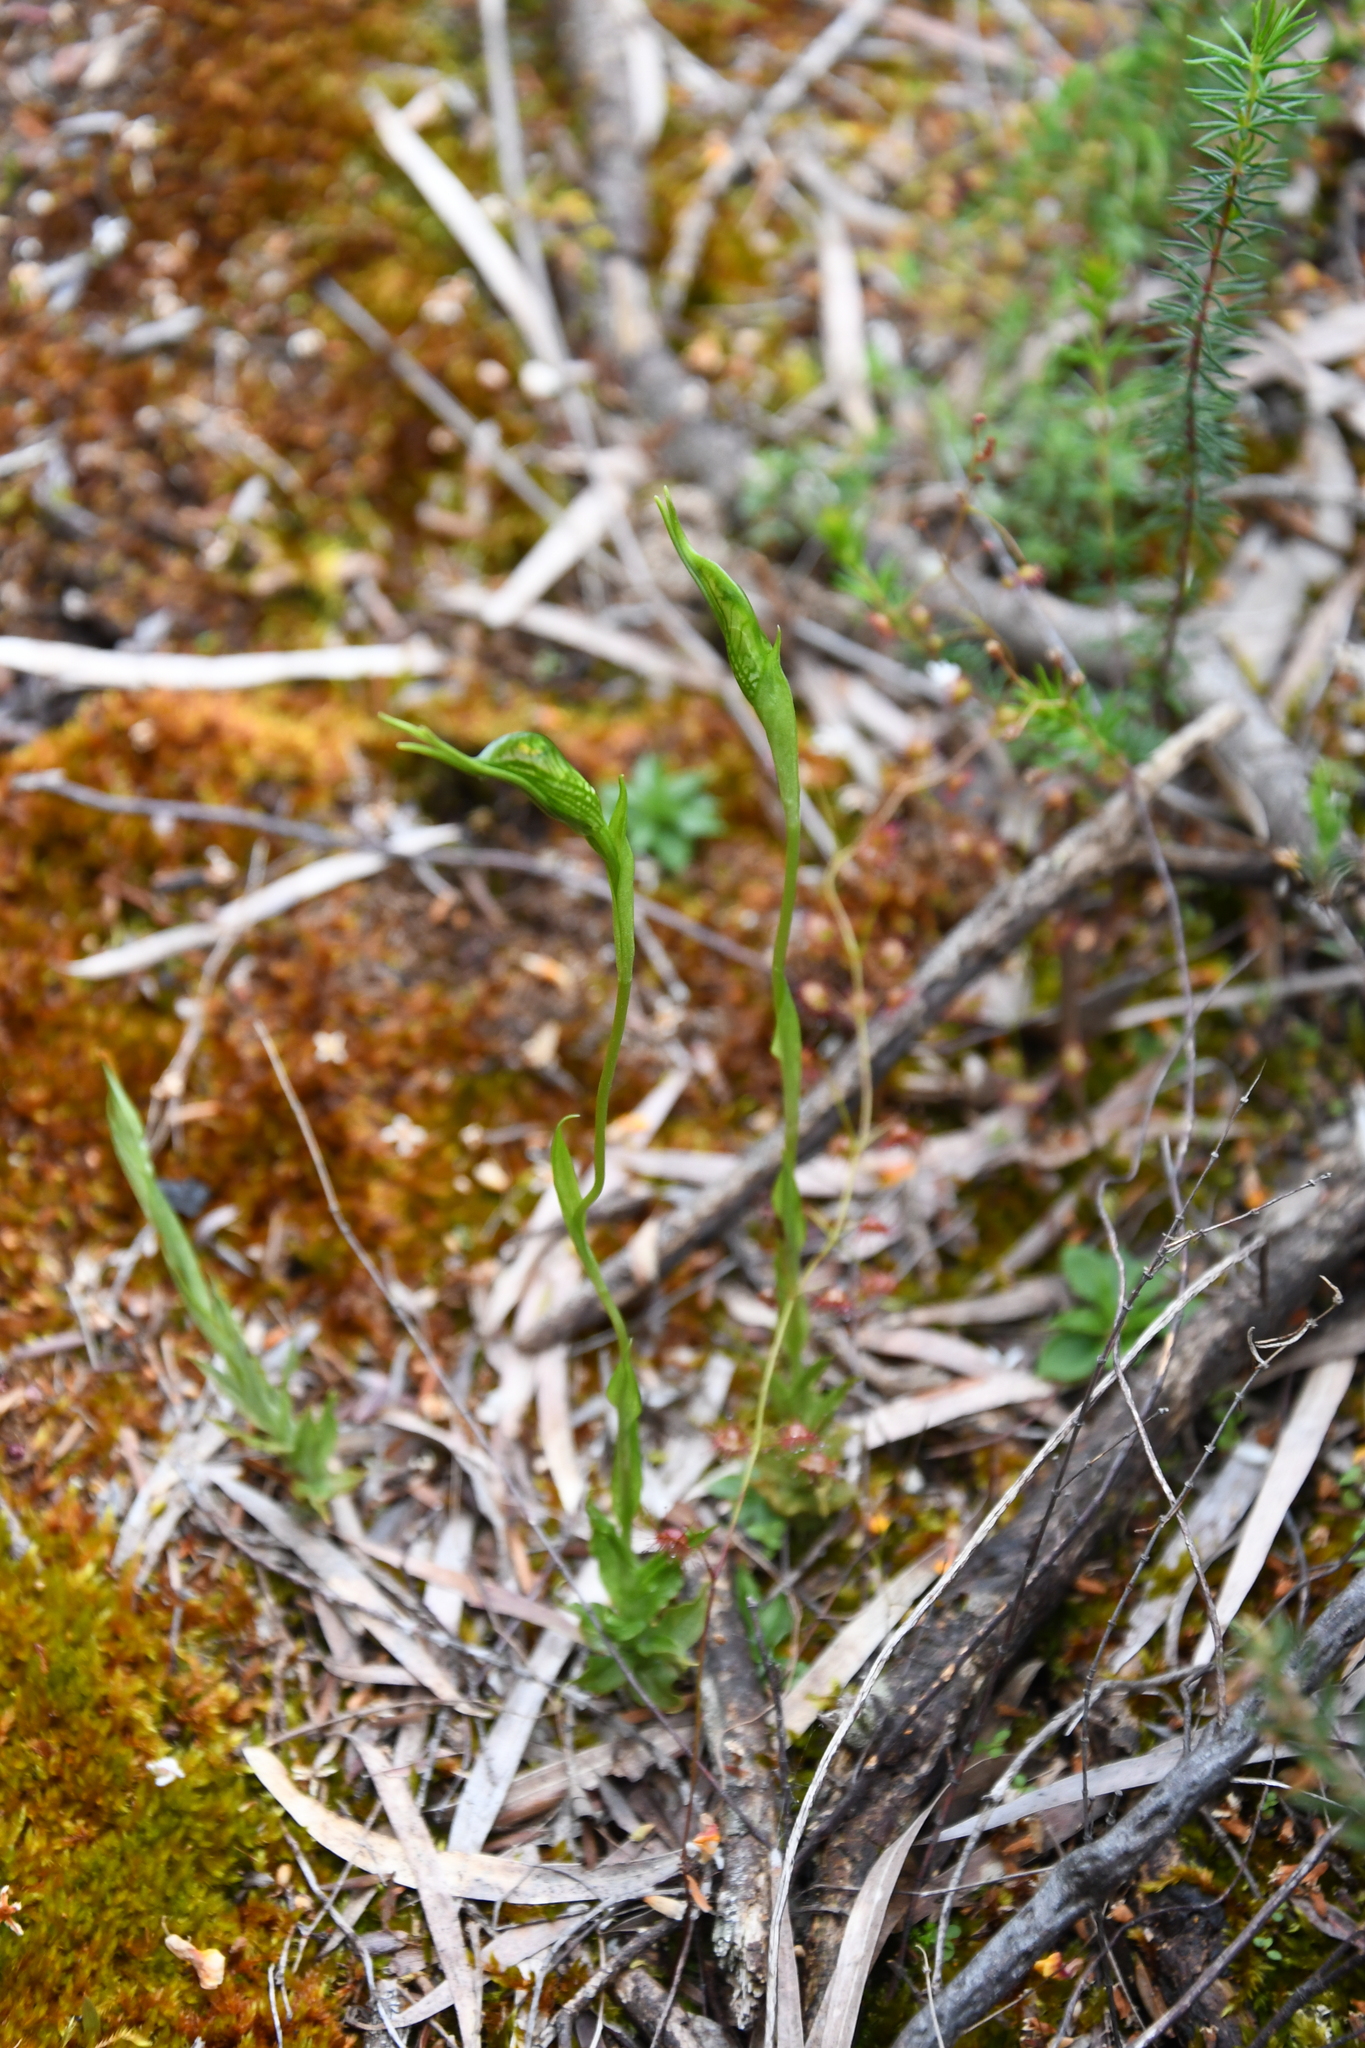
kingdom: Plantae
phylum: Tracheophyta
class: Liliopsida
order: Asparagales
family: Orchidaceae
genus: Pterostylis
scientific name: Pterostylis saxosa
